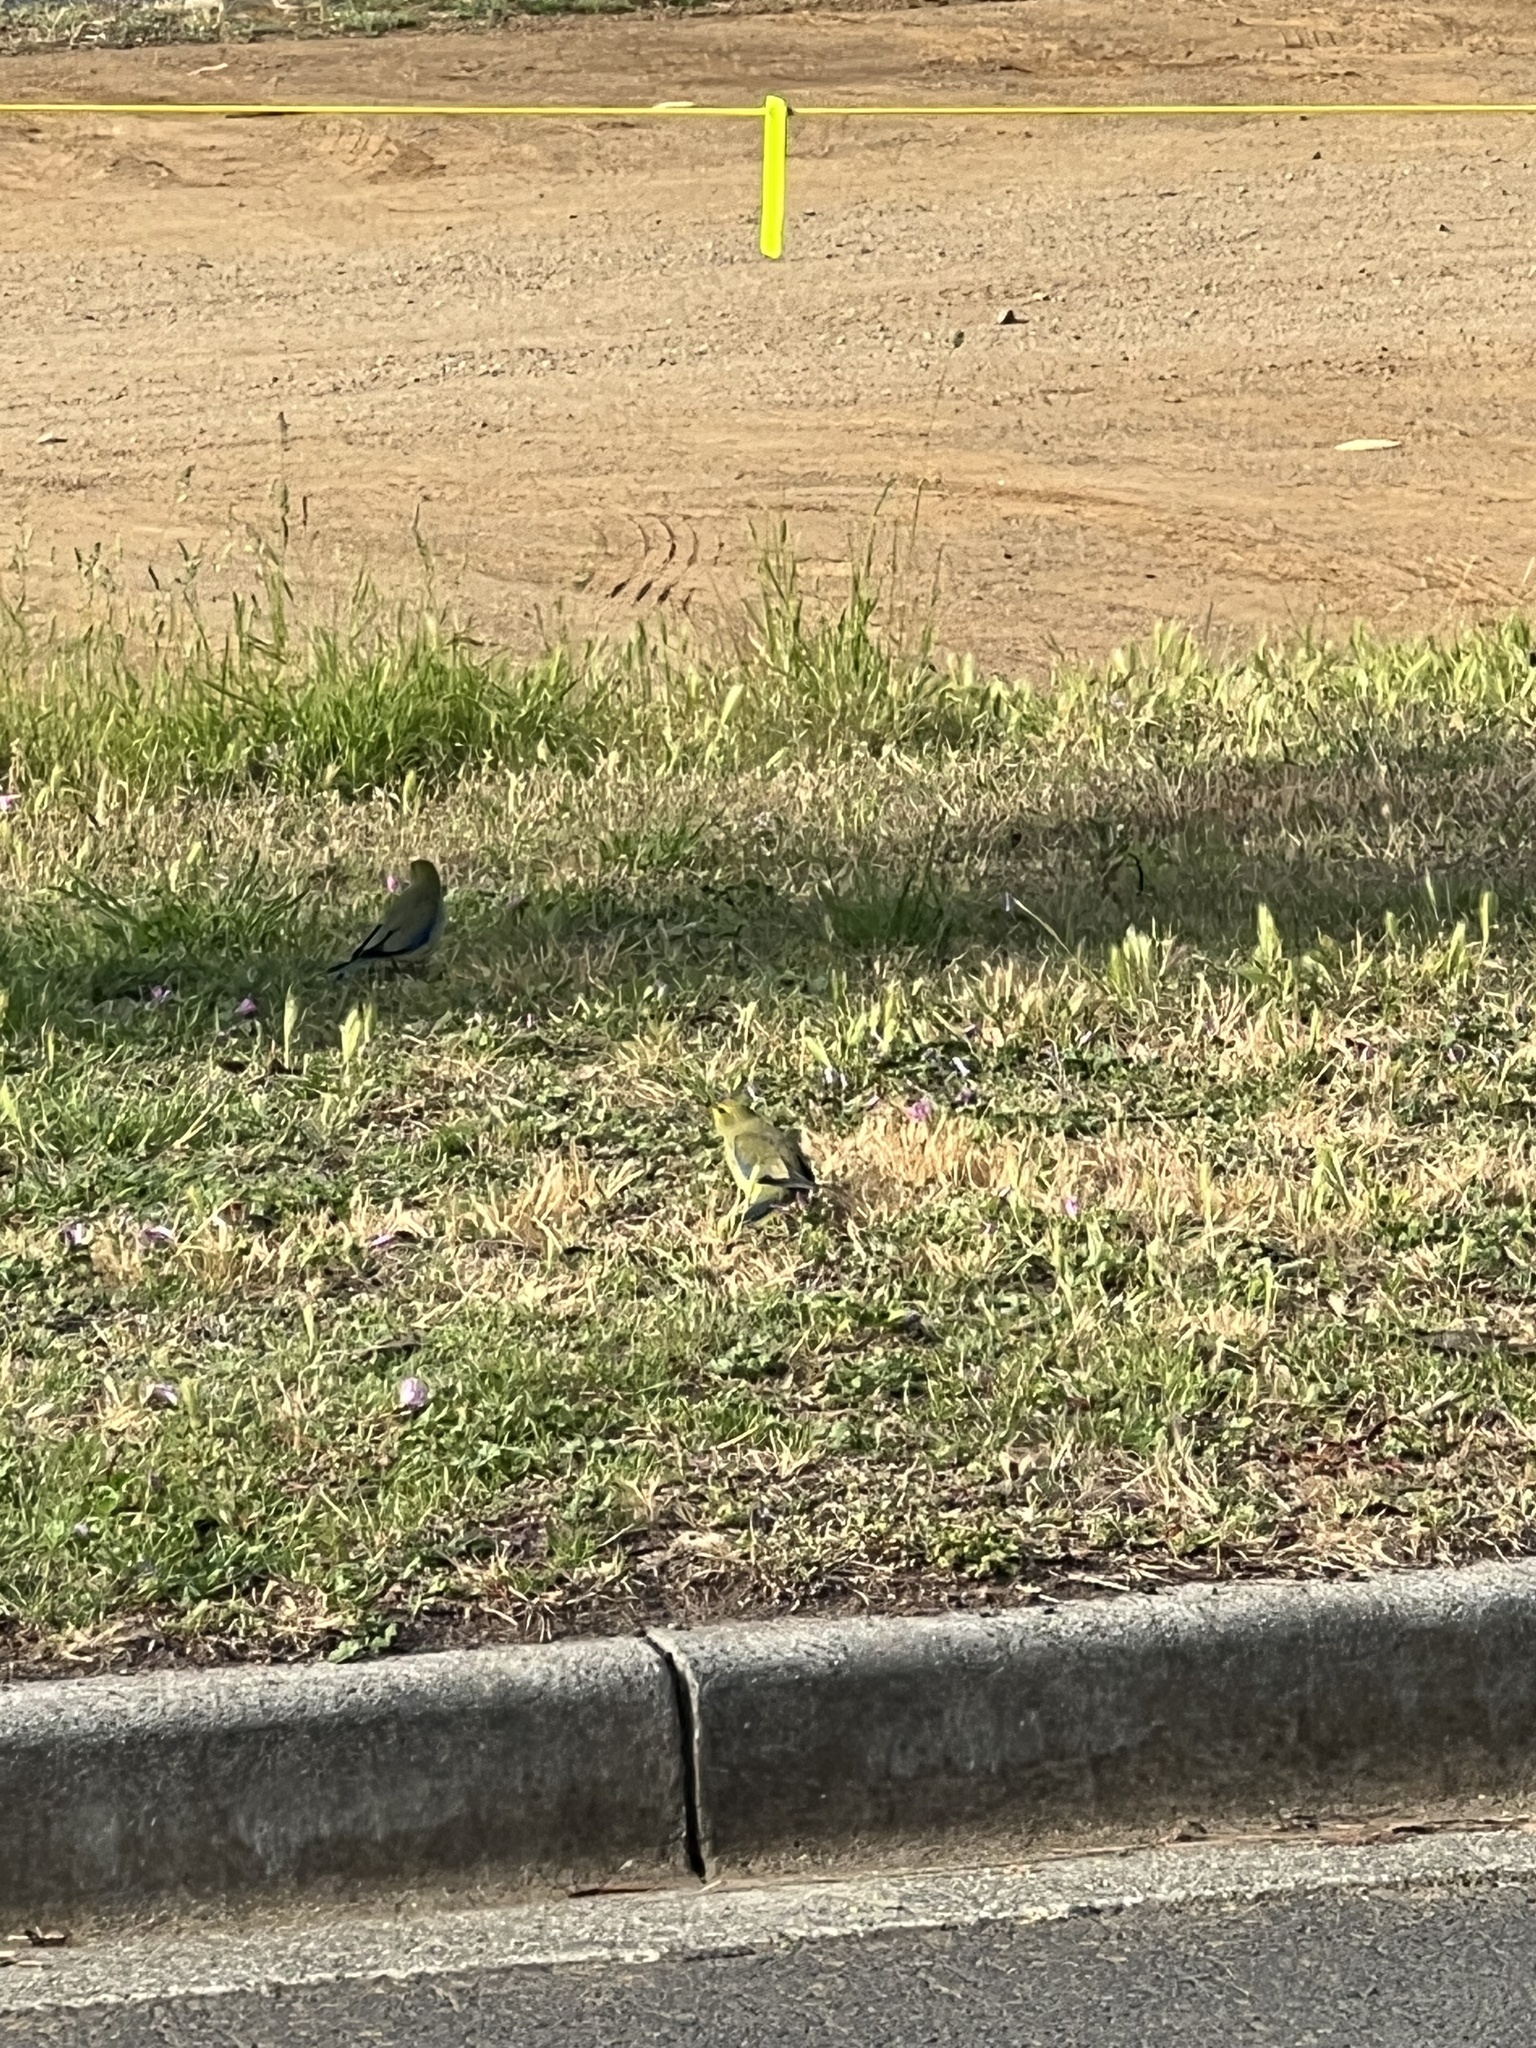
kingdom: Animalia
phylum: Chordata
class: Aves
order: Psittaciformes
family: Psittacidae
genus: Neophema
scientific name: Neophema chrysostoma
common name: Blue-winged parrot
